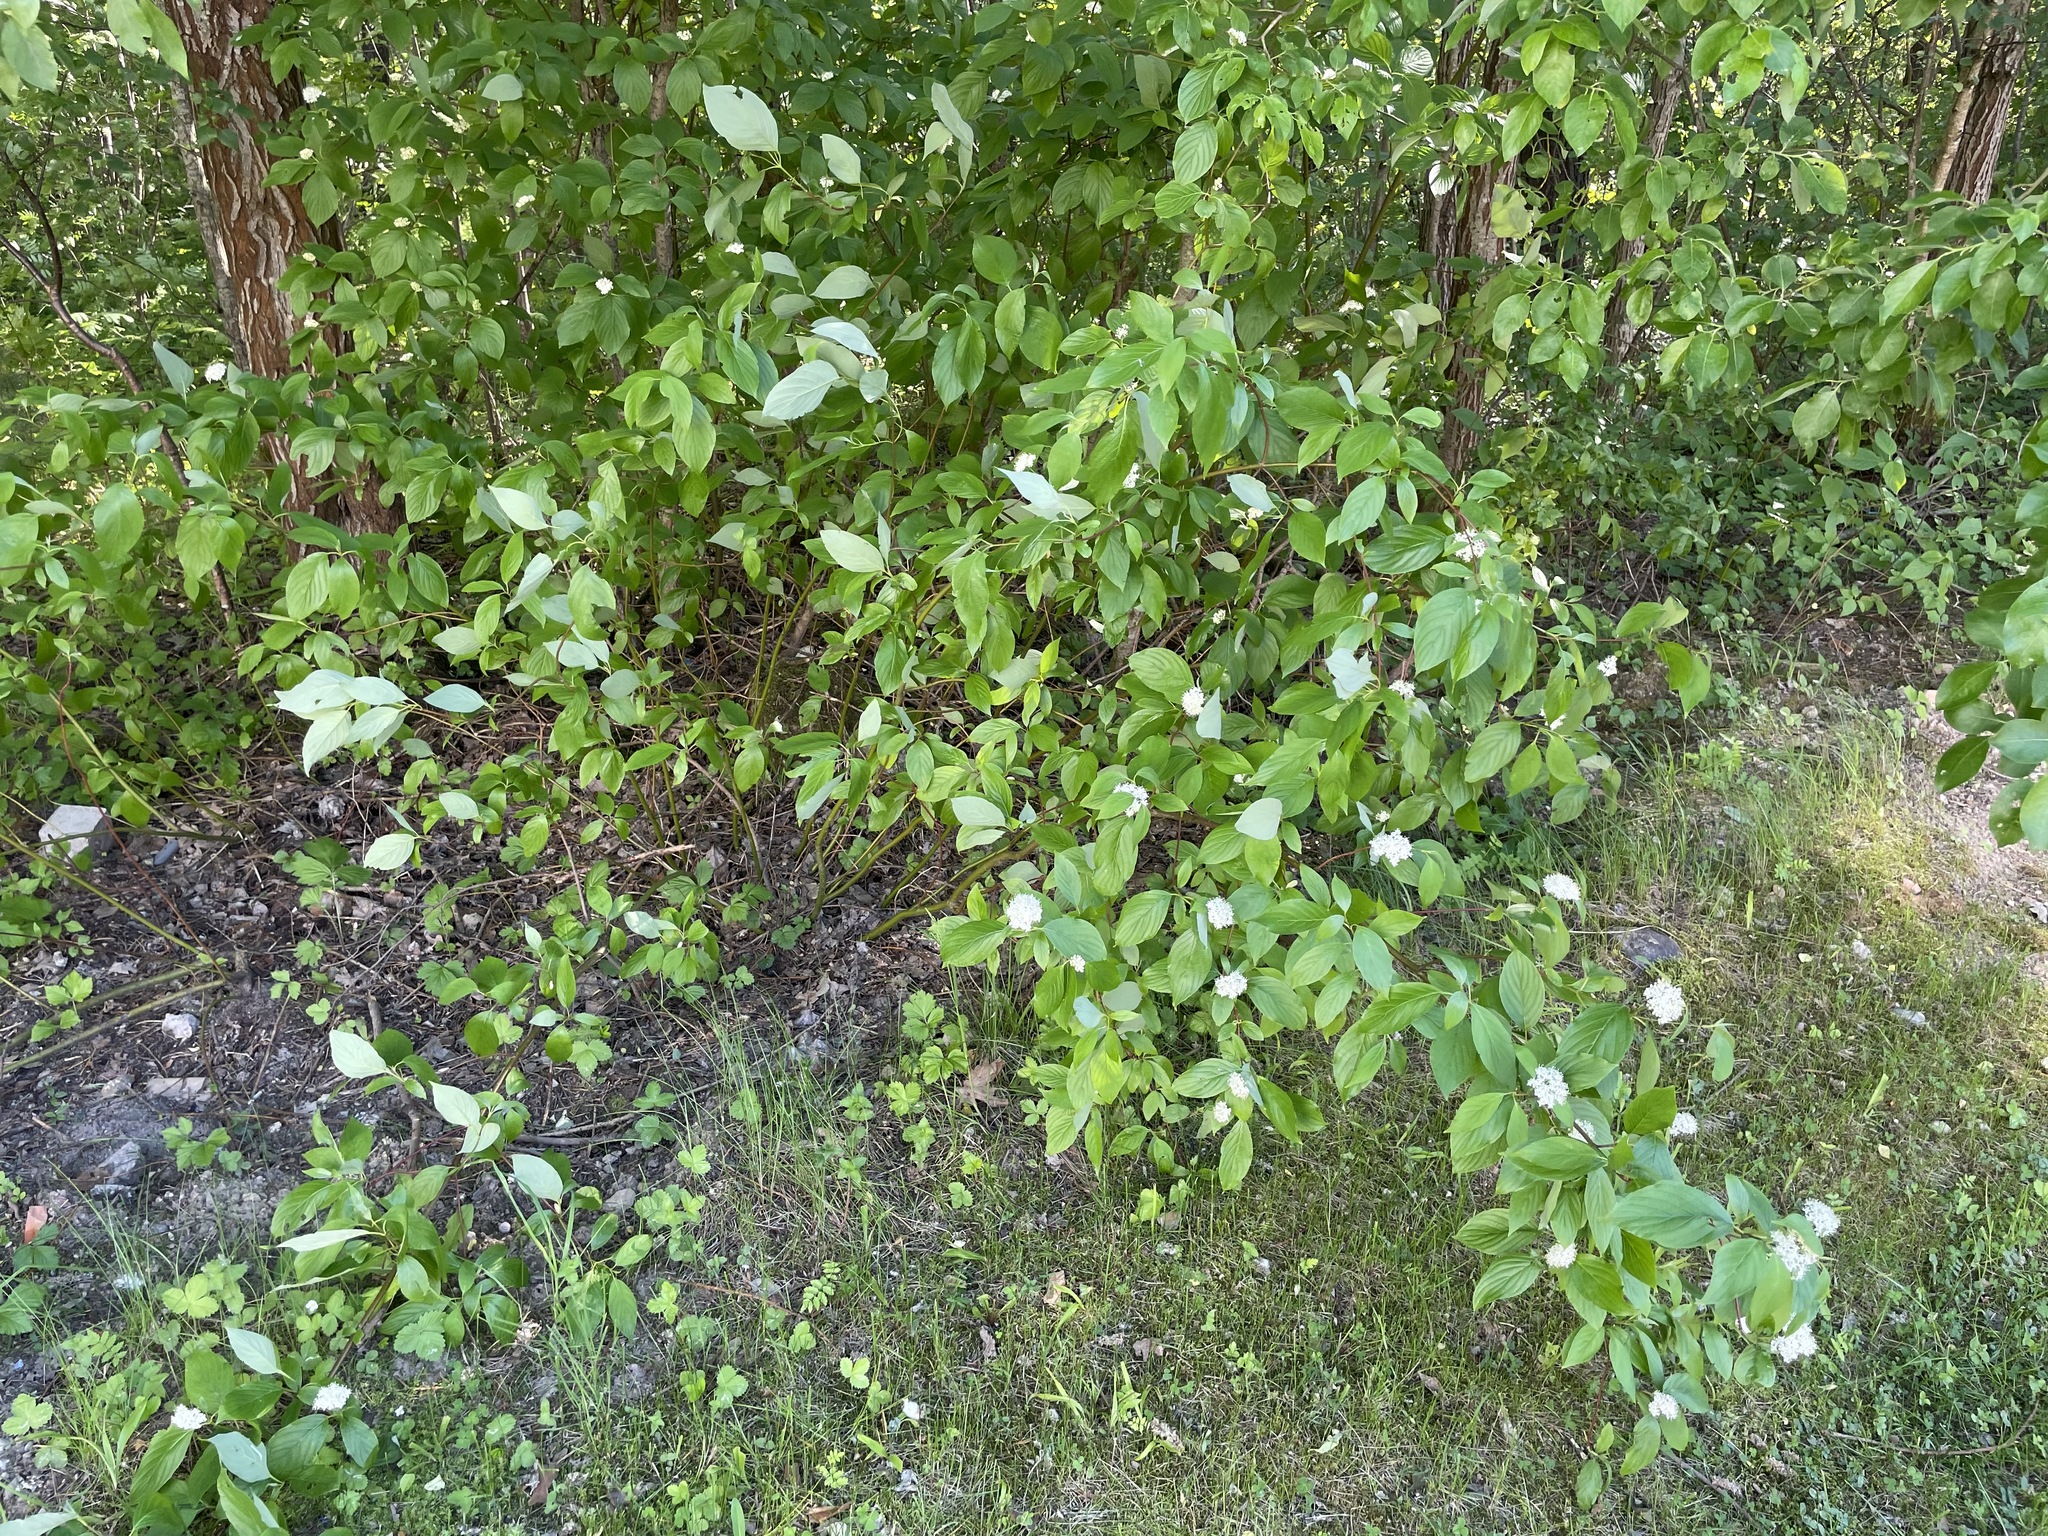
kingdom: Plantae
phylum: Tracheophyta
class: Magnoliopsida
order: Cornales
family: Cornaceae
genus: Cornus
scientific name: Cornus sericea
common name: Red-osier dogwood
